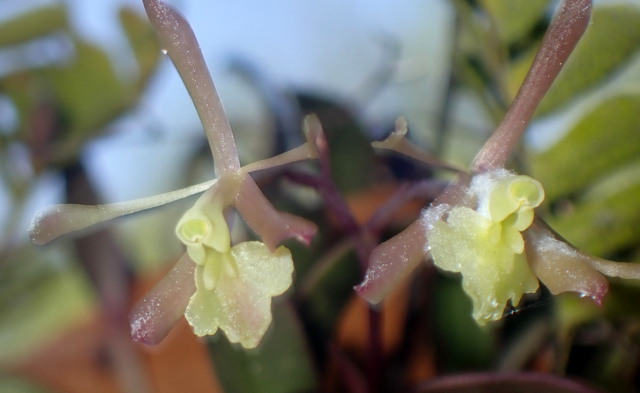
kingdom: Plantae
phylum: Tracheophyta
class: Liliopsida
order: Asparagales
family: Orchidaceae
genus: Epidendrum
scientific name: Epidendrum conopseum
